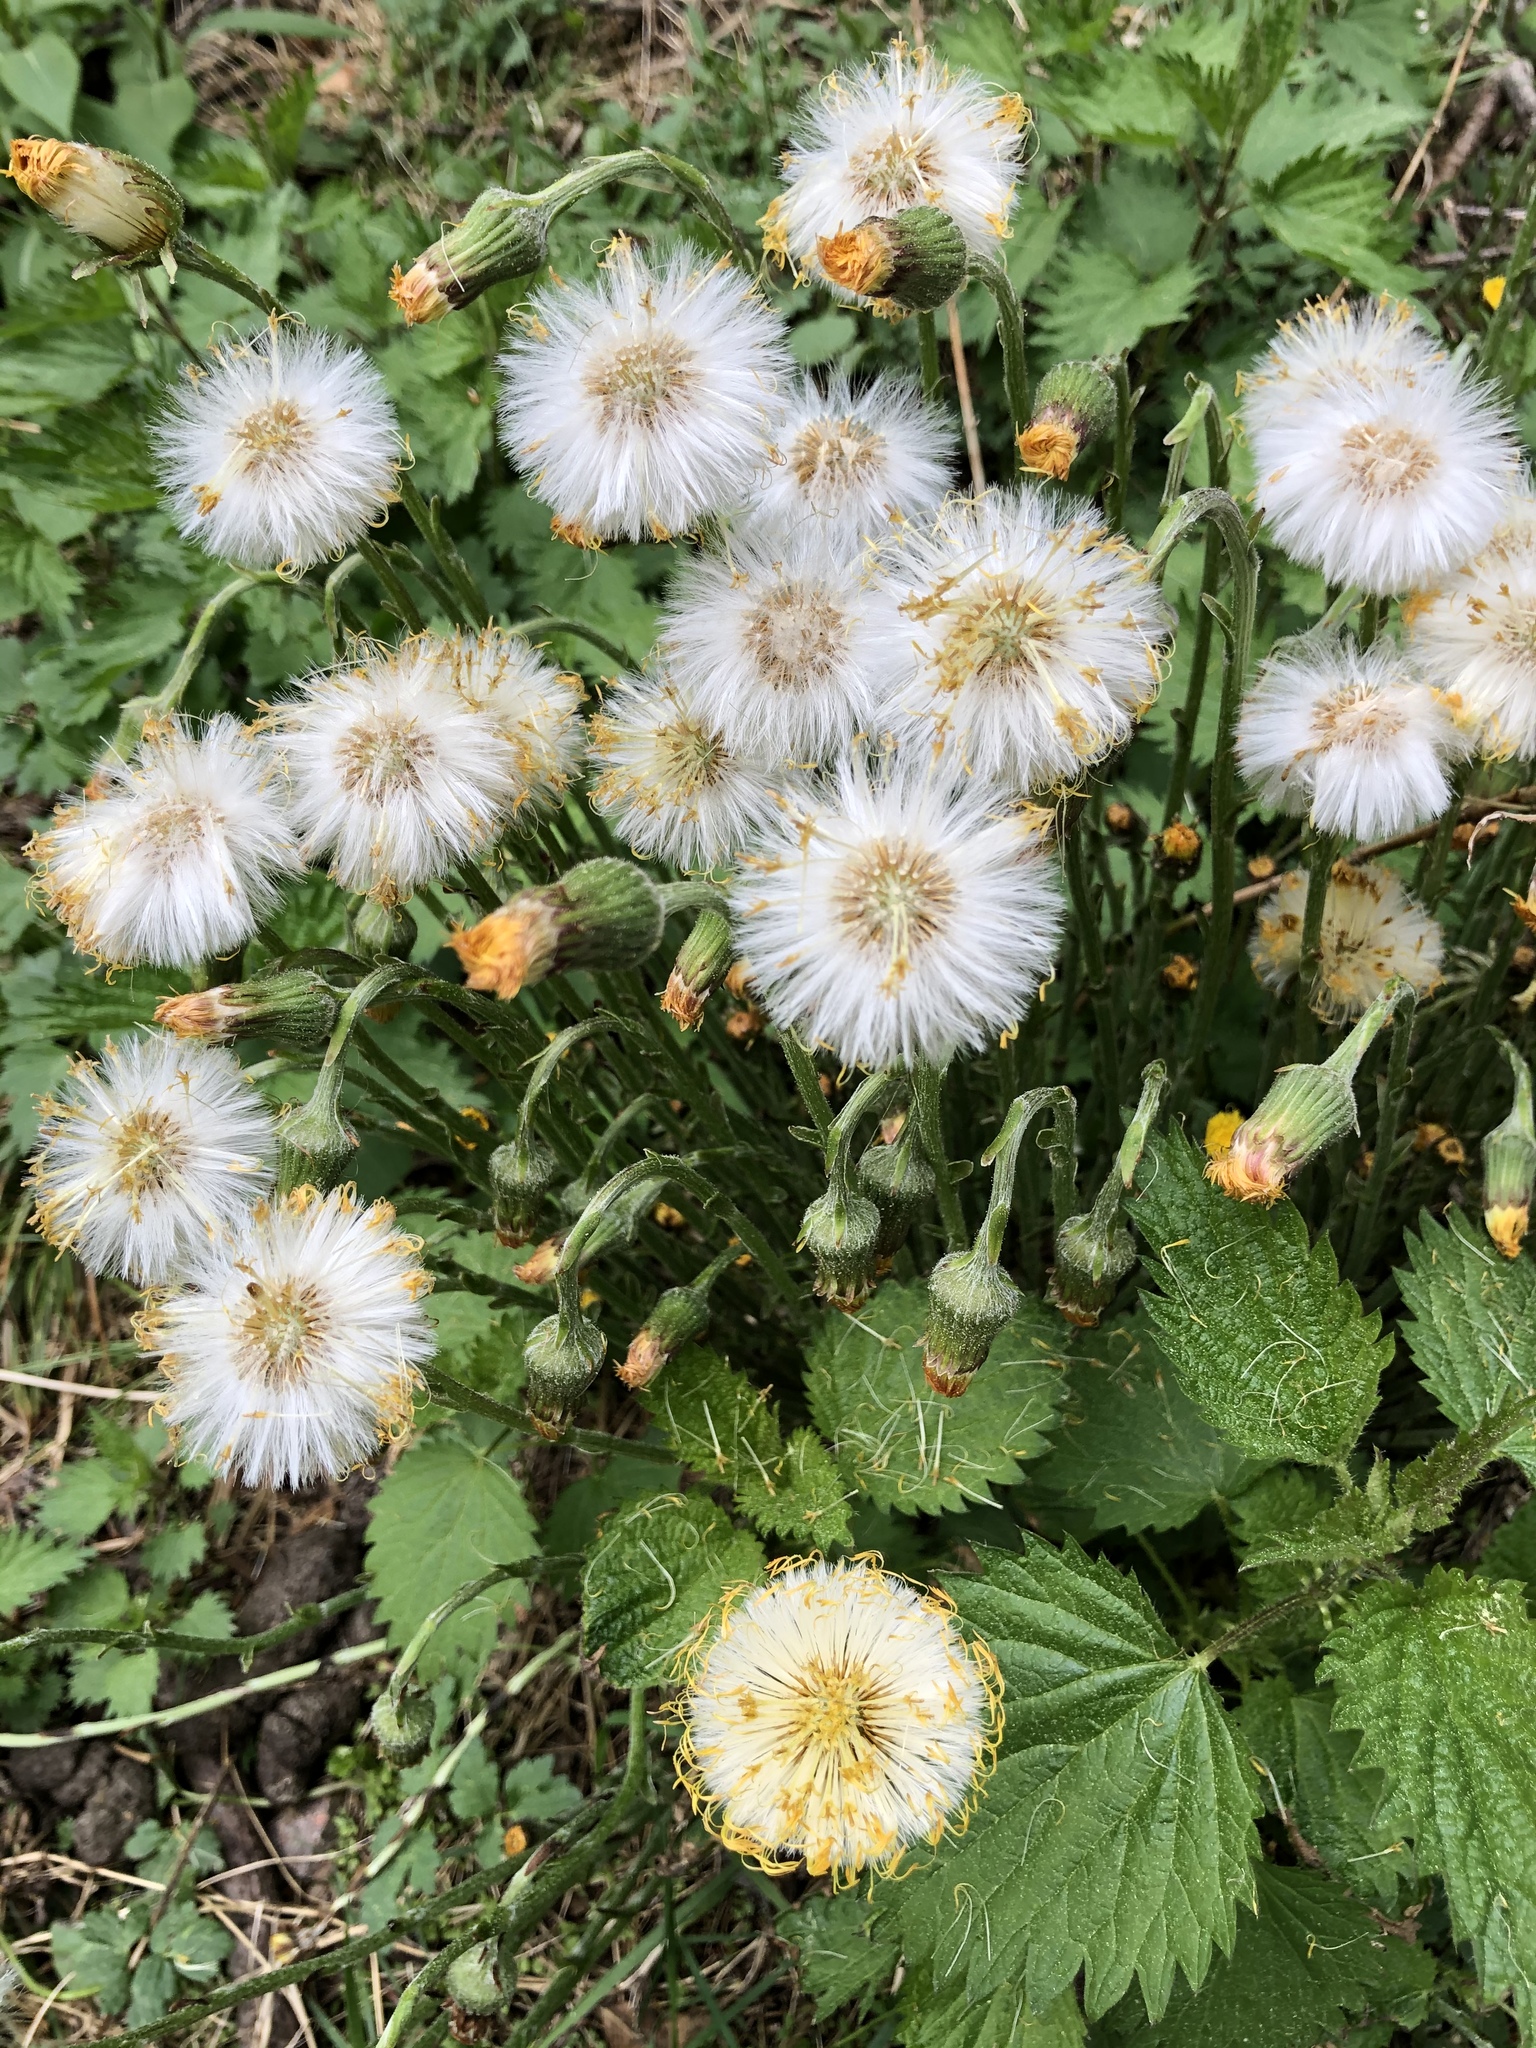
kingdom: Plantae
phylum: Tracheophyta
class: Magnoliopsida
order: Asterales
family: Asteraceae
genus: Tussilago
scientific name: Tussilago farfara
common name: Coltsfoot
